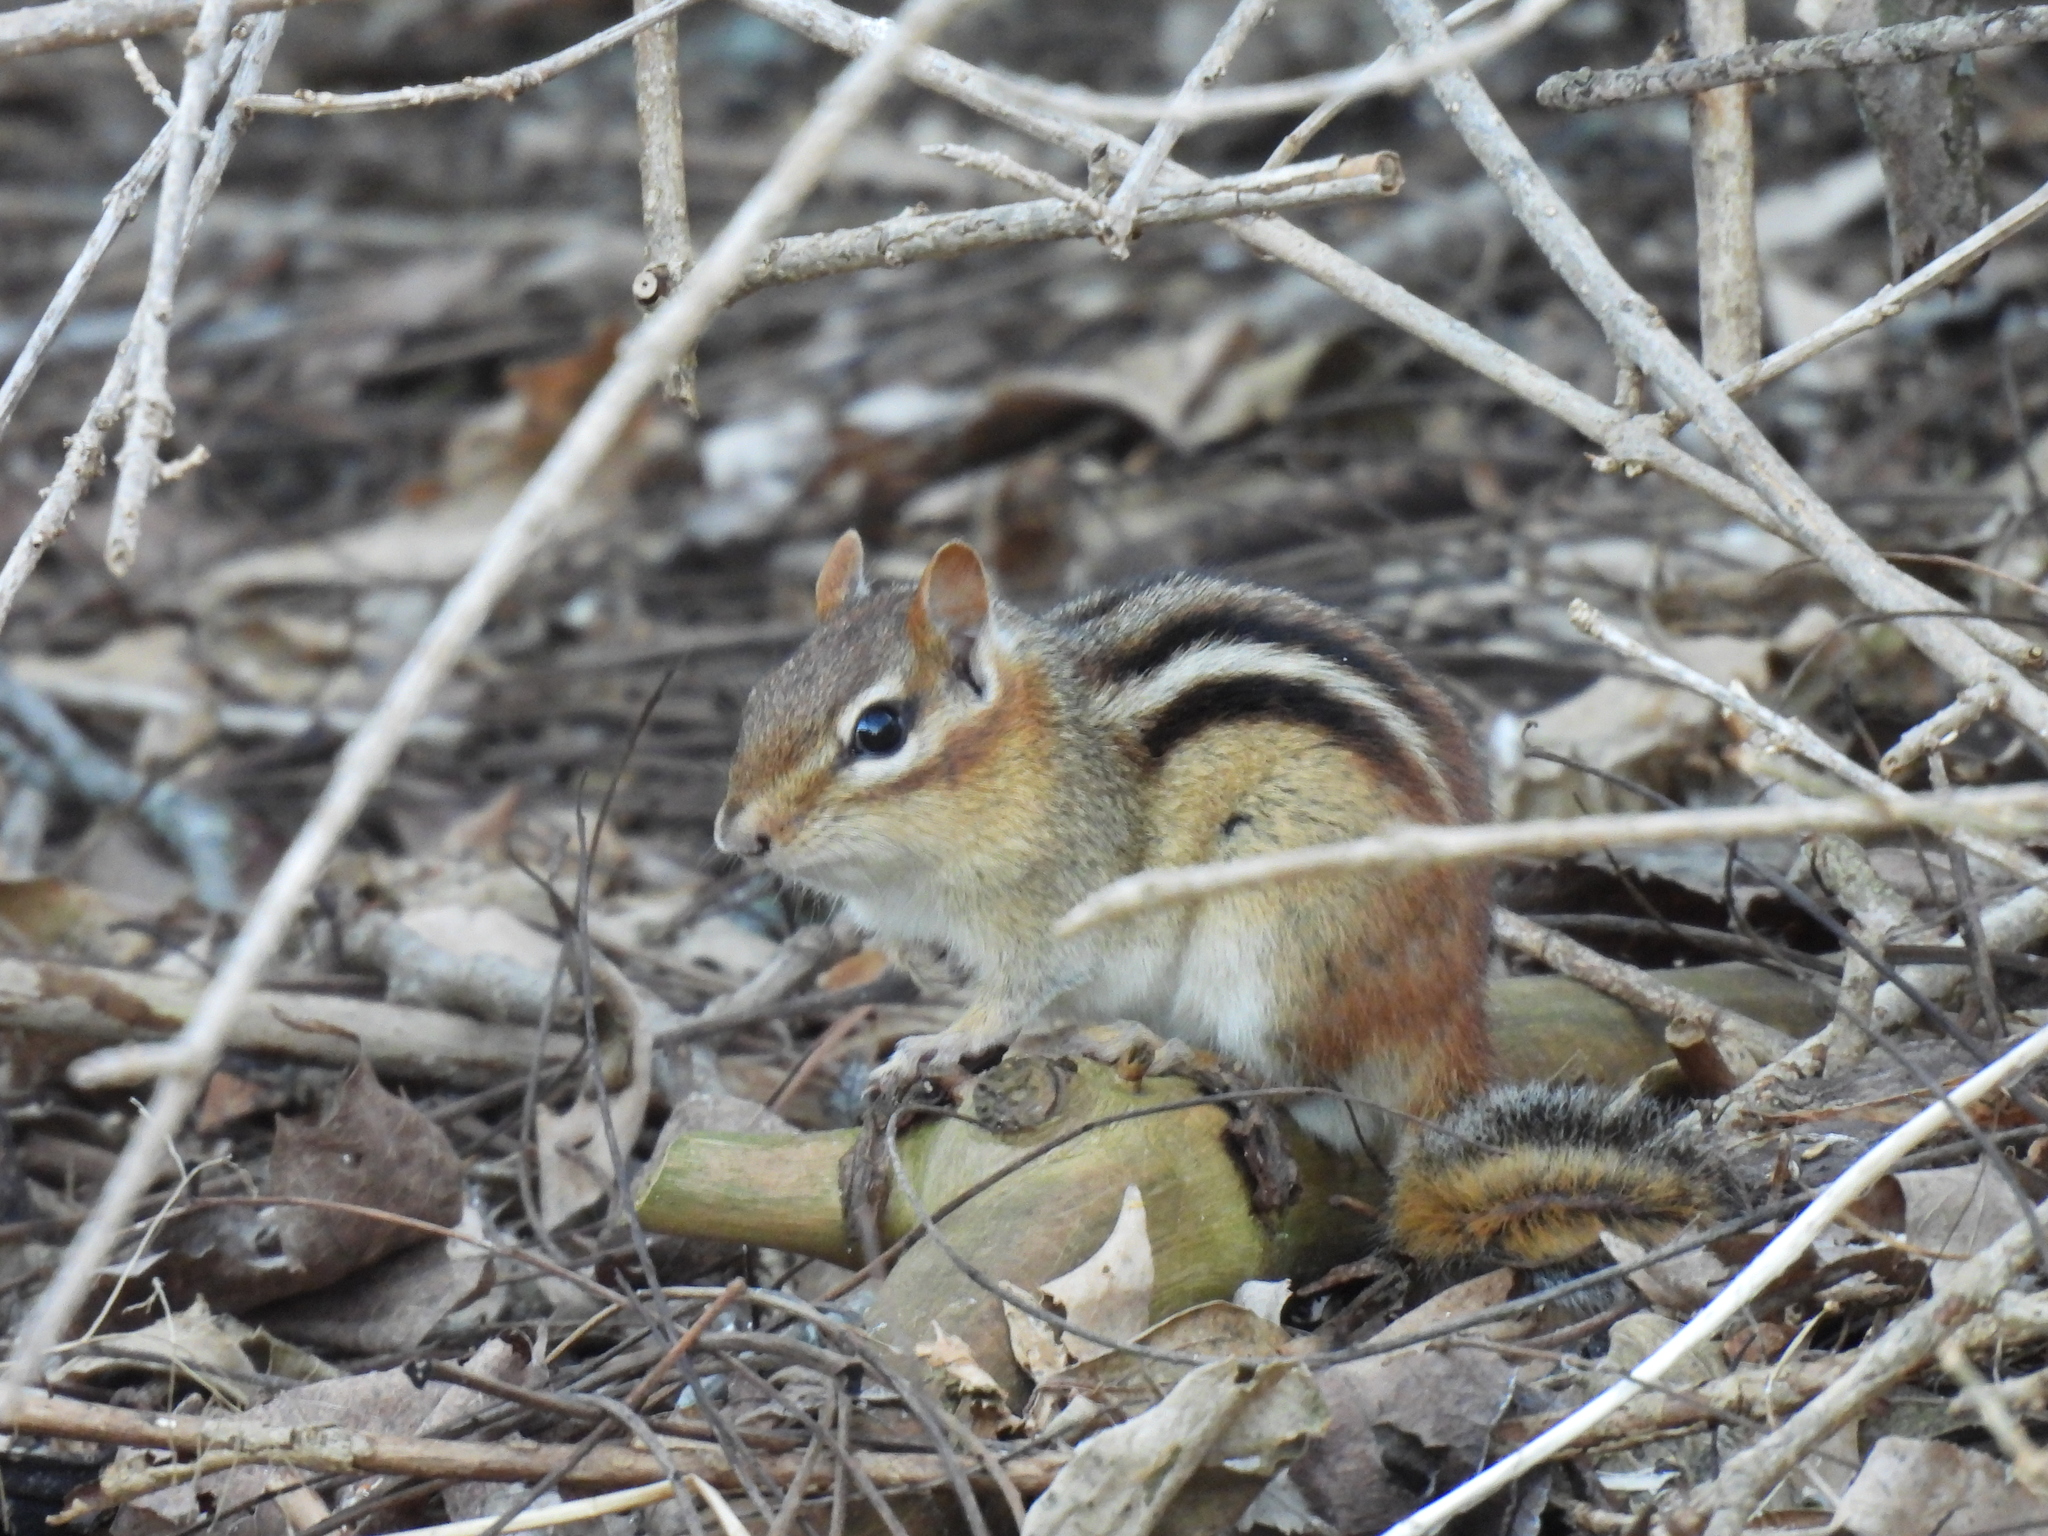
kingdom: Animalia
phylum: Chordata
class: Mammalia
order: Rodentia
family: Sciuridae
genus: Tamias
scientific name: Tamias striatus
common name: Eastern chipmunk
